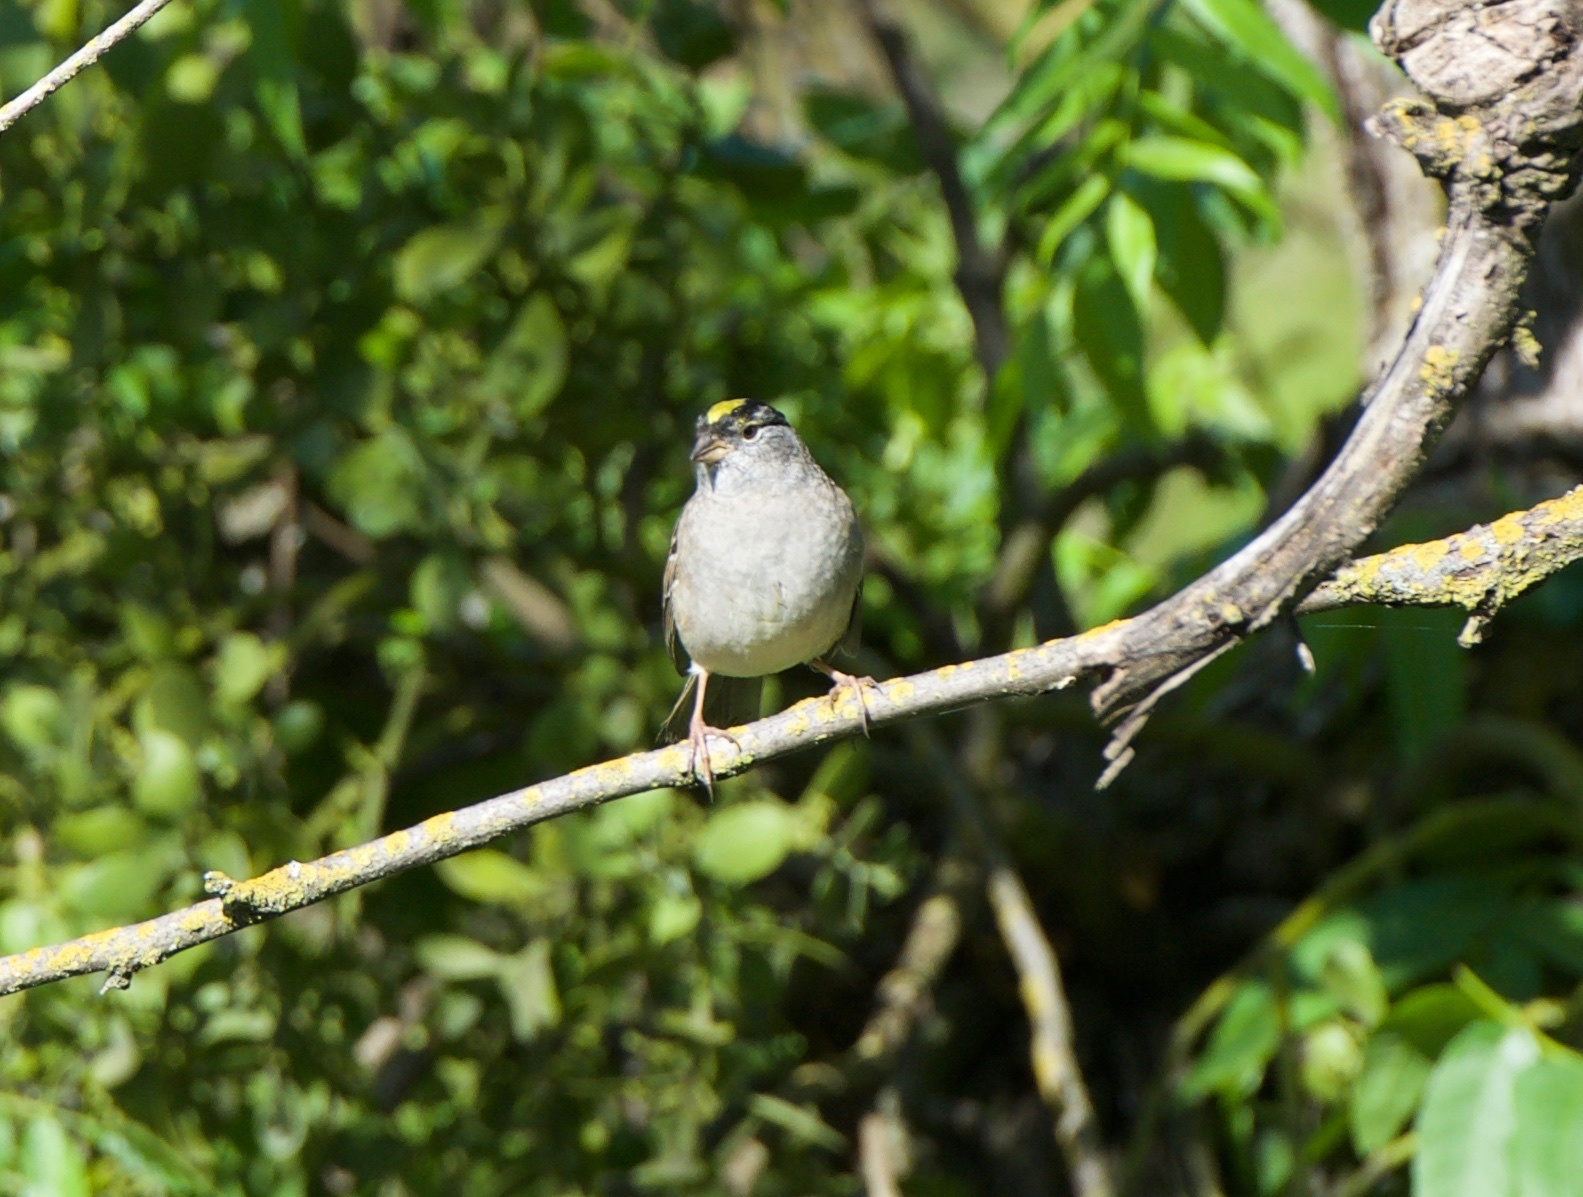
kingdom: Animalia
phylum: Chordata
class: Aves
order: Passeriformes
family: Passerellidae
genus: Zonotrichia
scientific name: Zonotrichia atricapilla
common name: Golden-crowned sparrow
